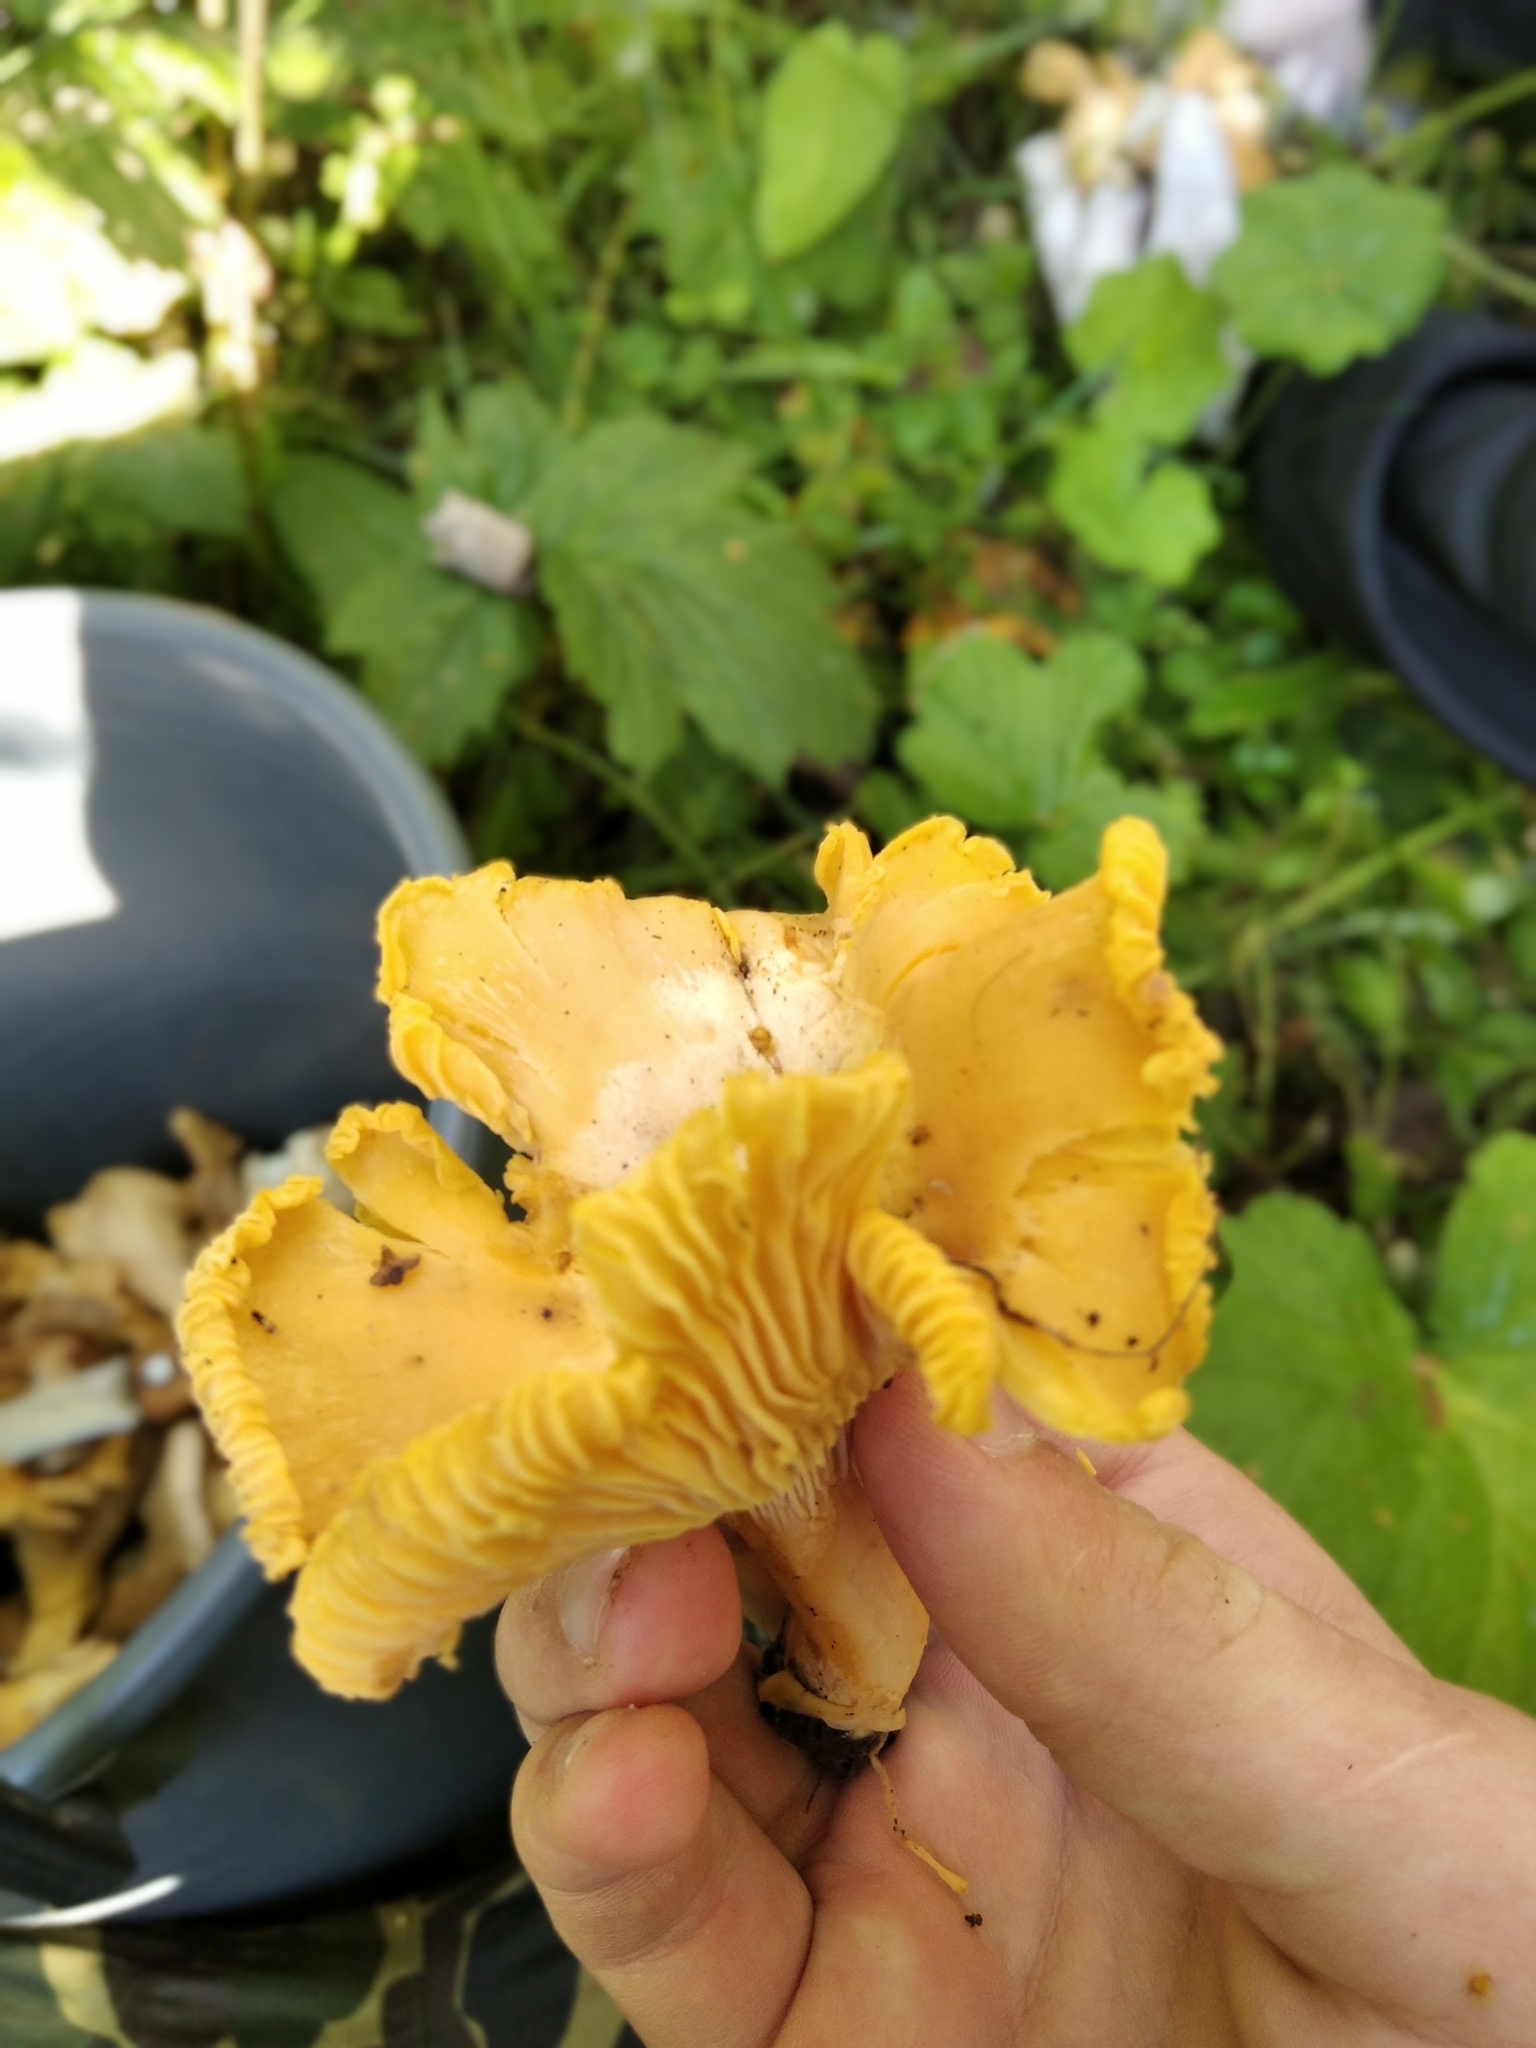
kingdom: Fungi
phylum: Basidiomycota
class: Agaricomycetes
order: Cantharellales
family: Hydnaceae
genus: Cantharellus
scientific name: Cantharellus cibarius
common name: Chanterelle
